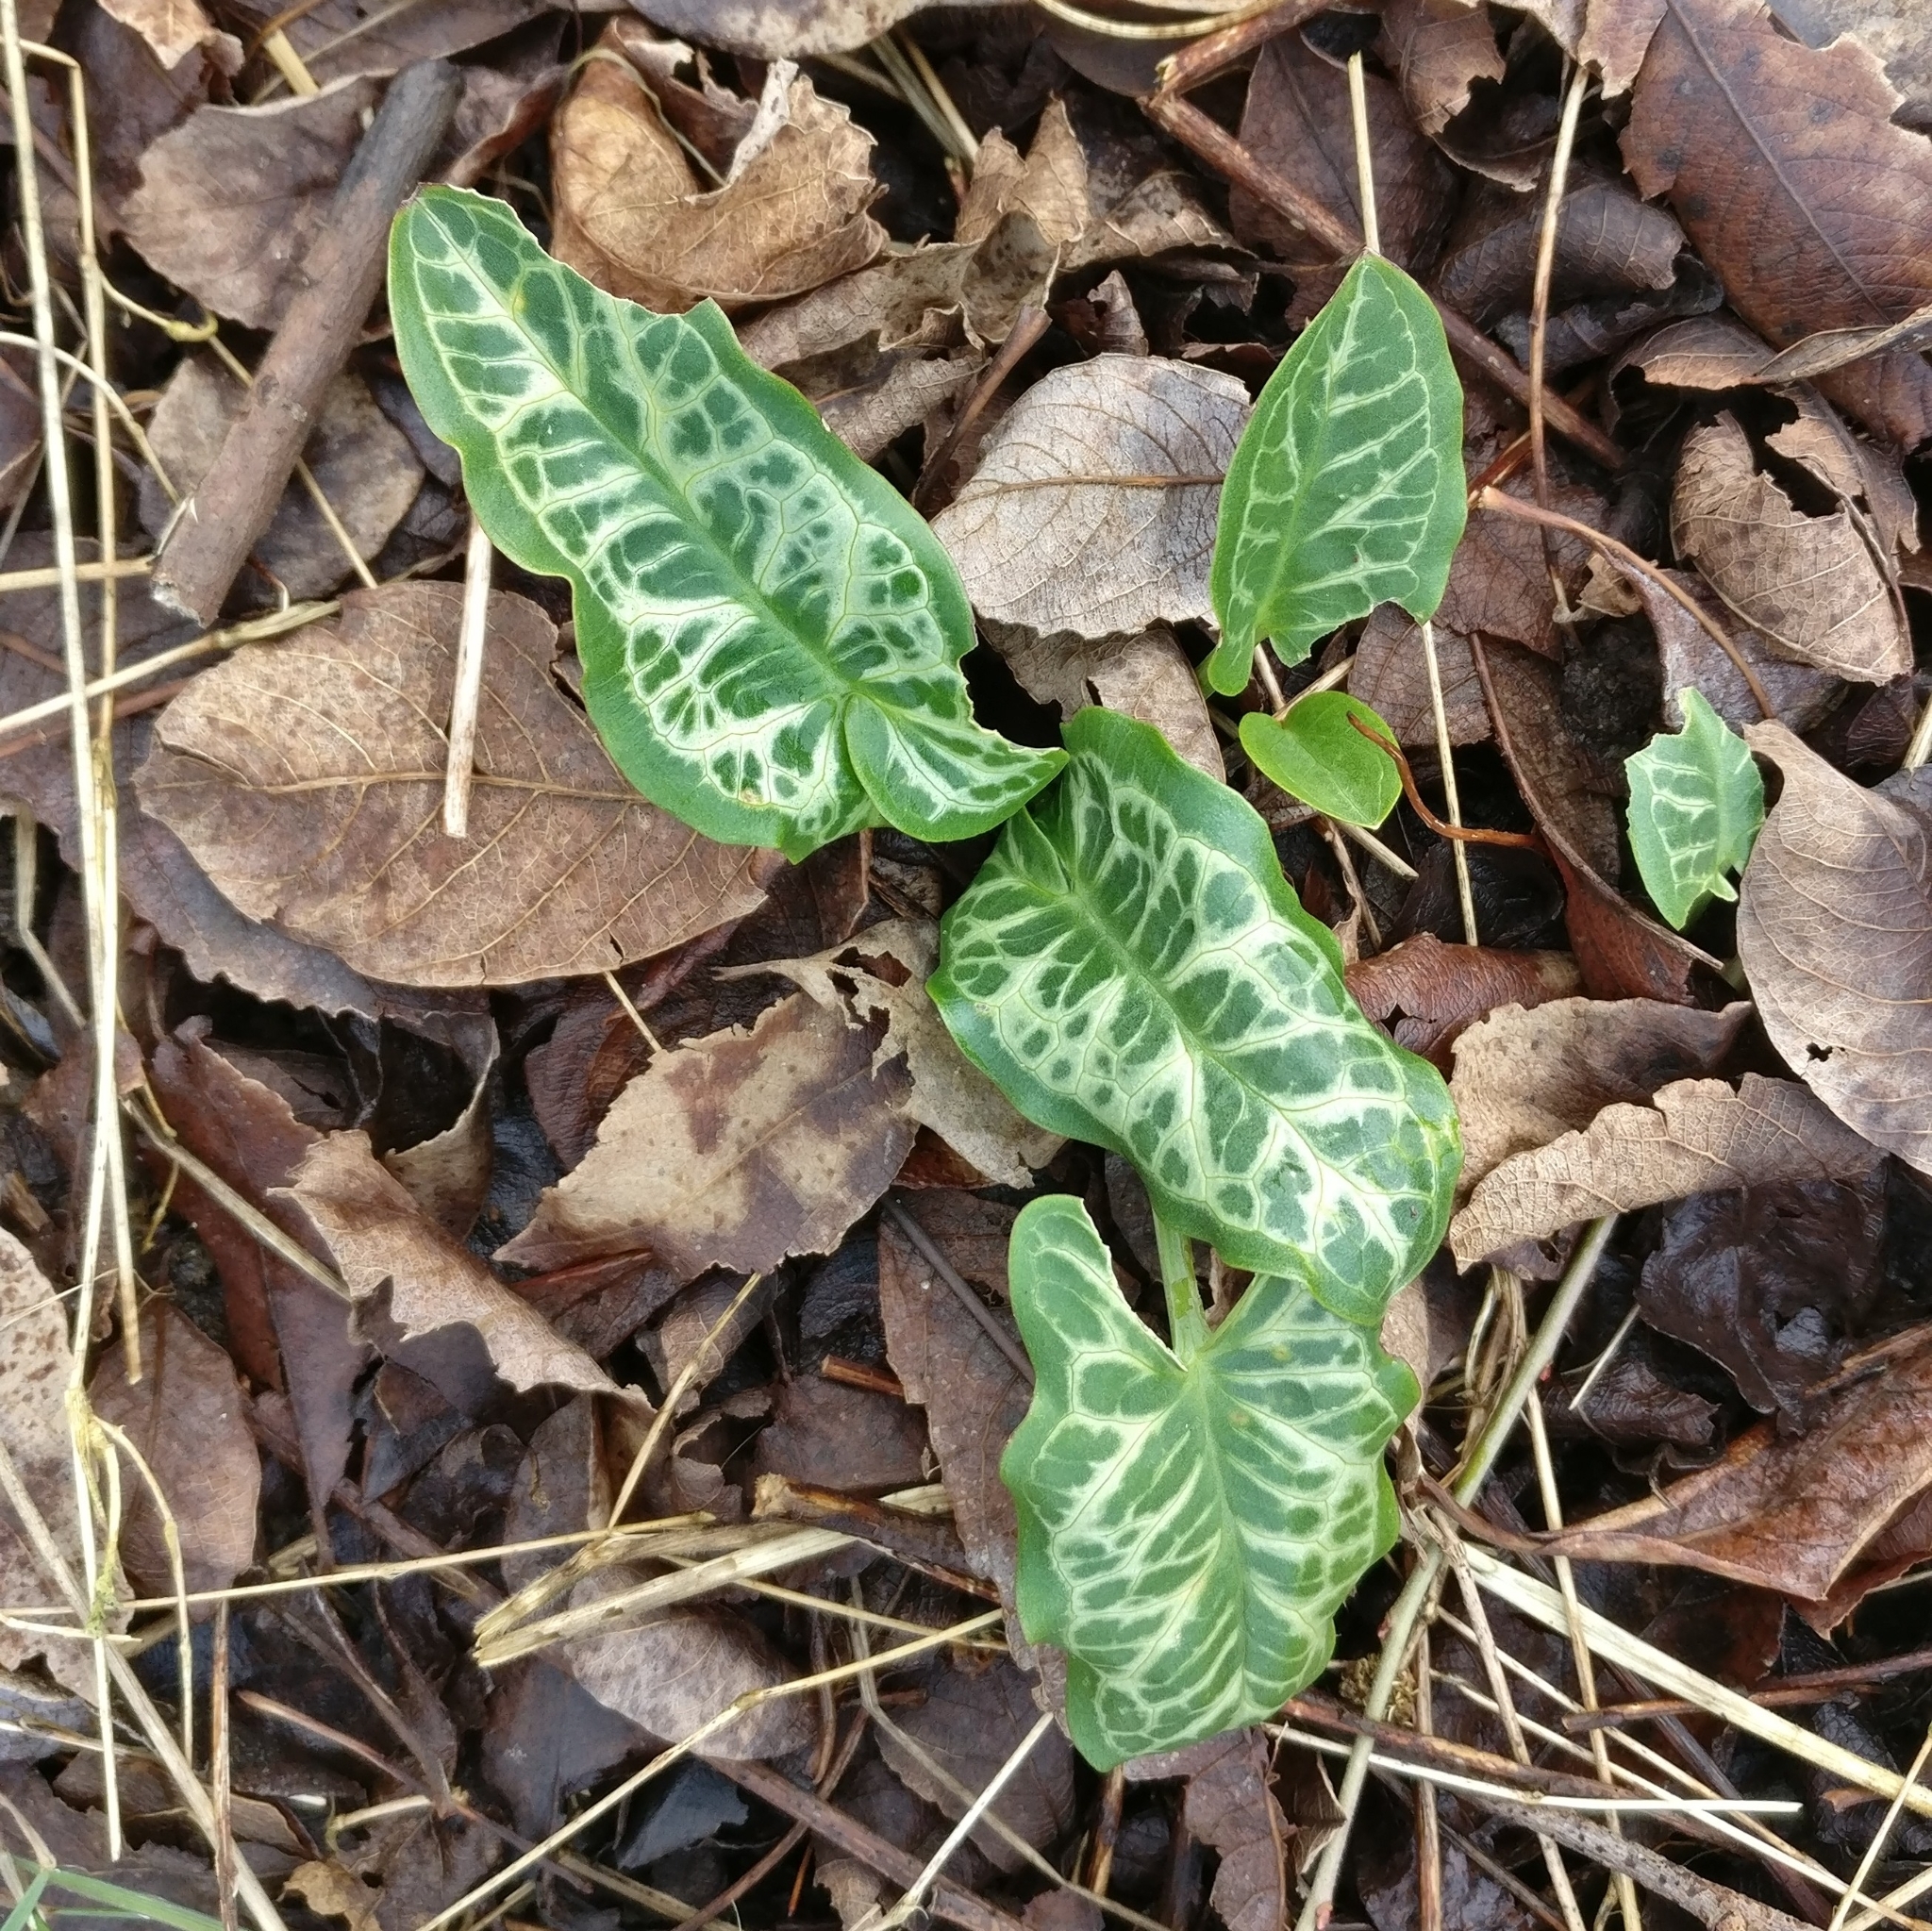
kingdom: Plantae
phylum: Tracheophyta
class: Liliopsida
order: Alismatales
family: Araceae
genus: Arum
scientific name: Arum italicum
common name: Italian lords-and-ladies
